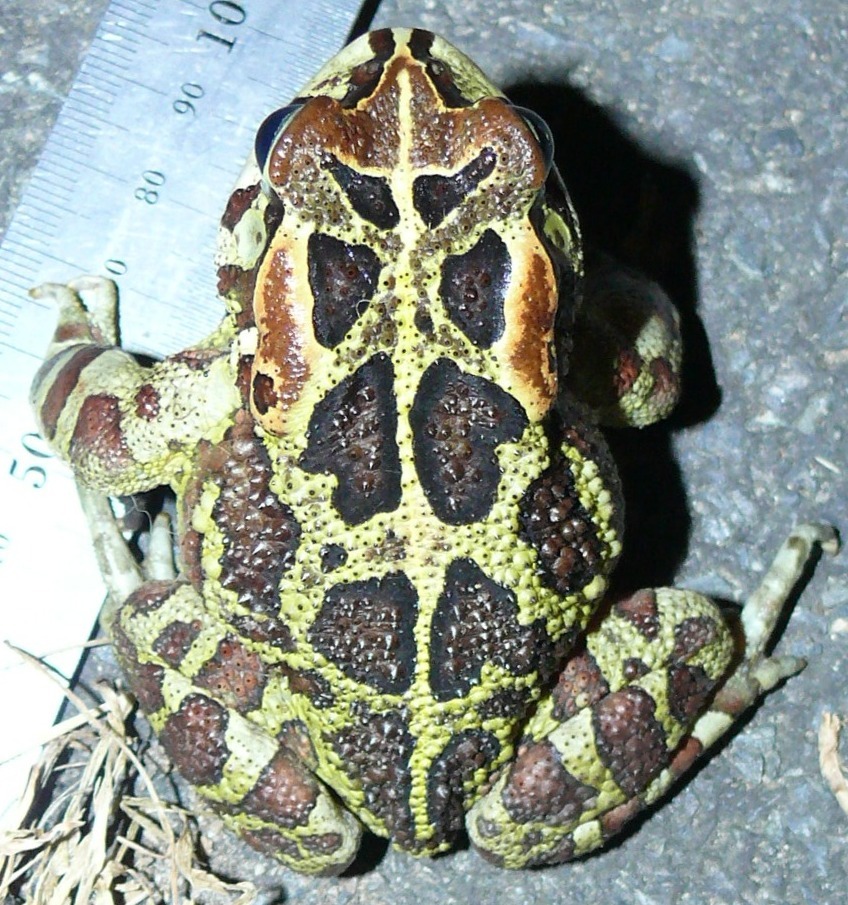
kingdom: Animalia
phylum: Chordata
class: Amphibia
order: Anura
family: Bufonidae
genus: Sclerophrys
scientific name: Sclerophrys pantherina
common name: Panther toad
